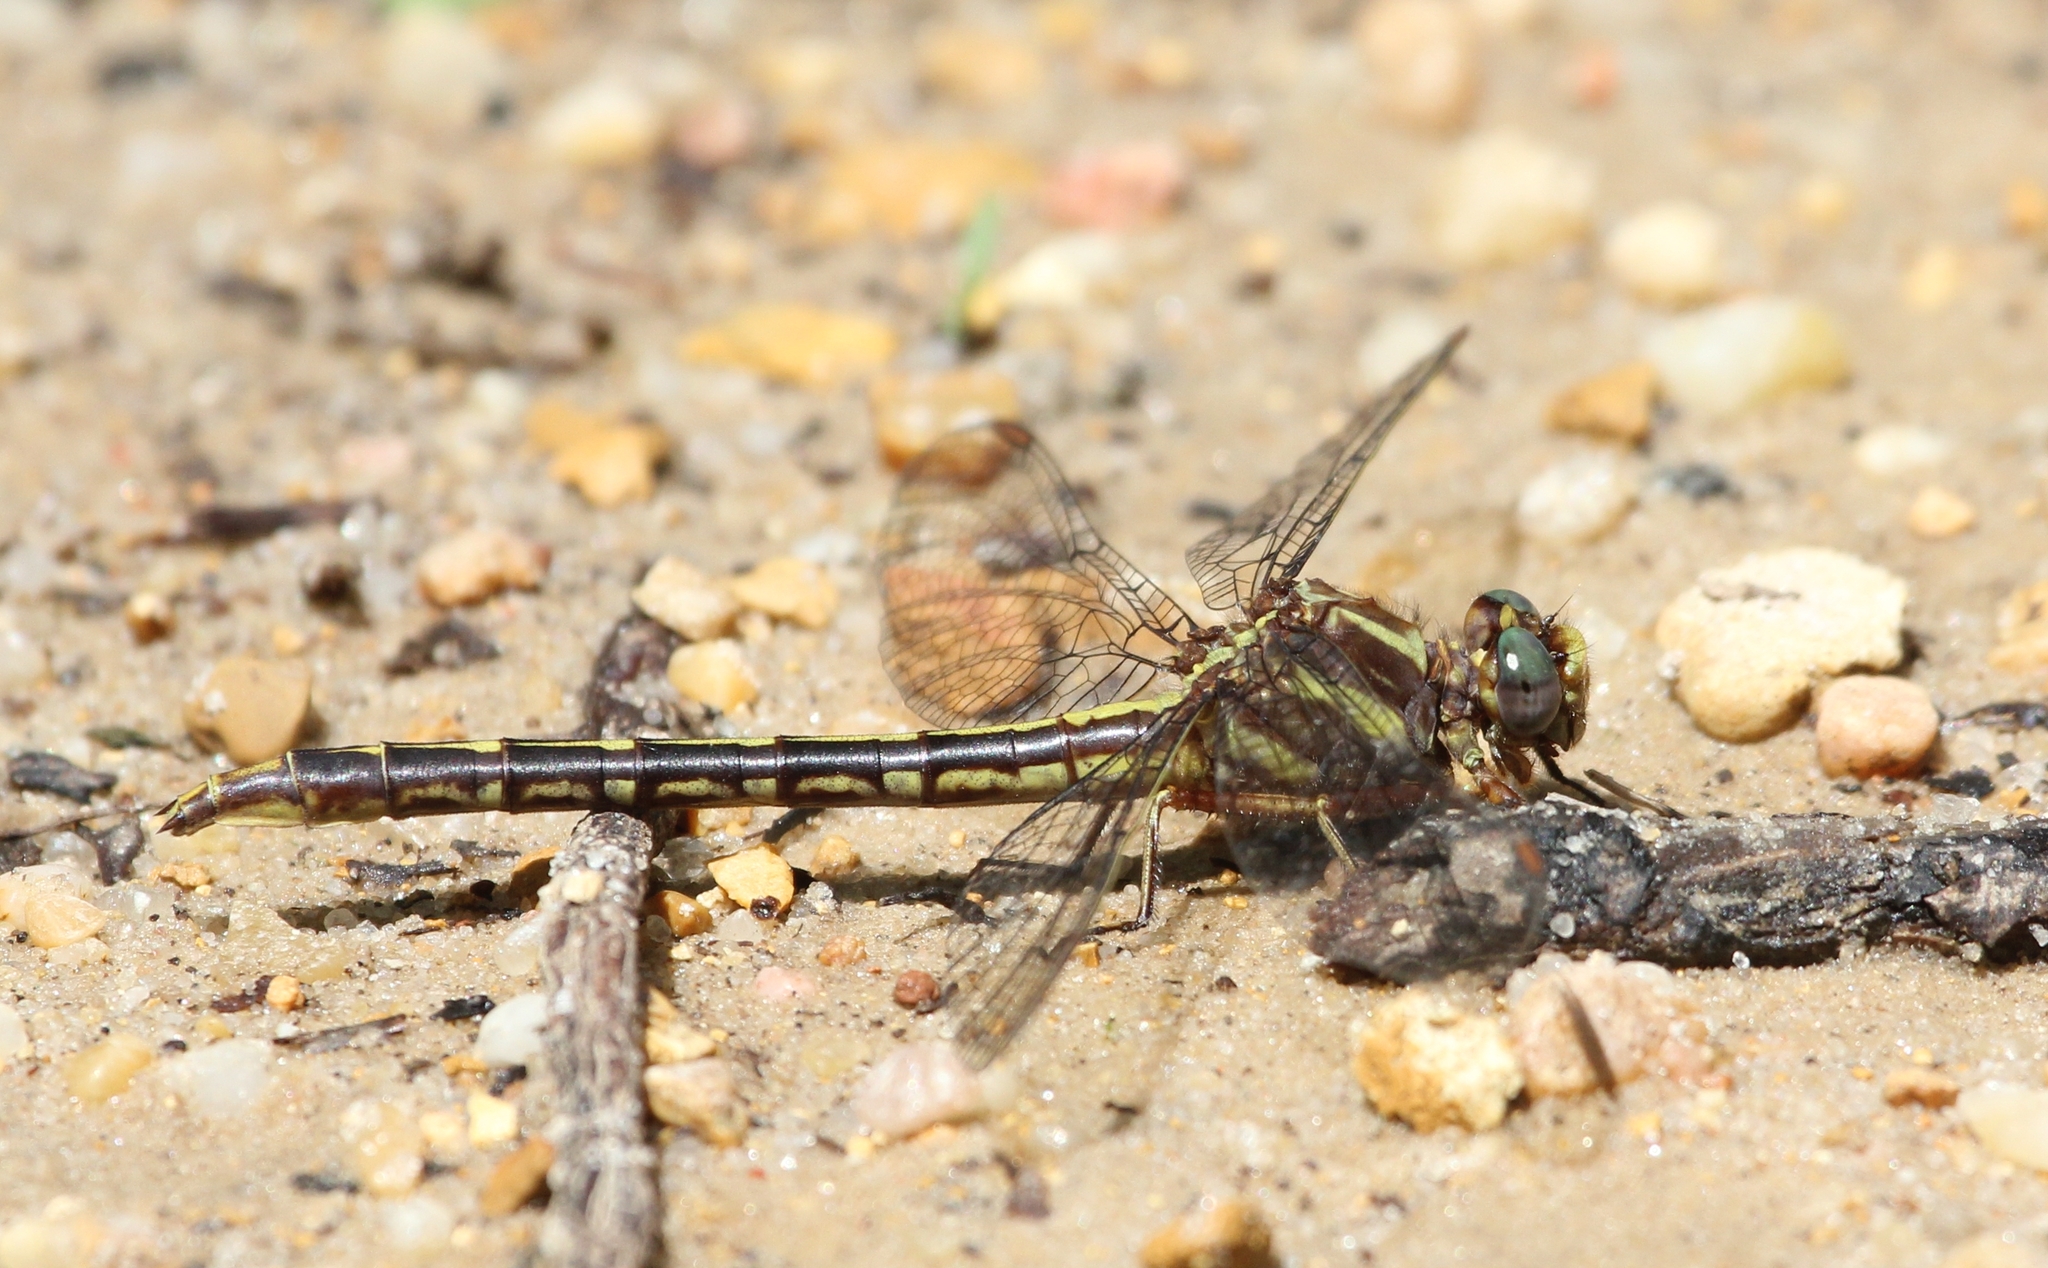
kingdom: Animalia
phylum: Arthropoda
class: Insecta
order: Odonata
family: Gomphidae
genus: Phanogomphus
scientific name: Phanogomphus lividus
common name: Ashy clubtail
